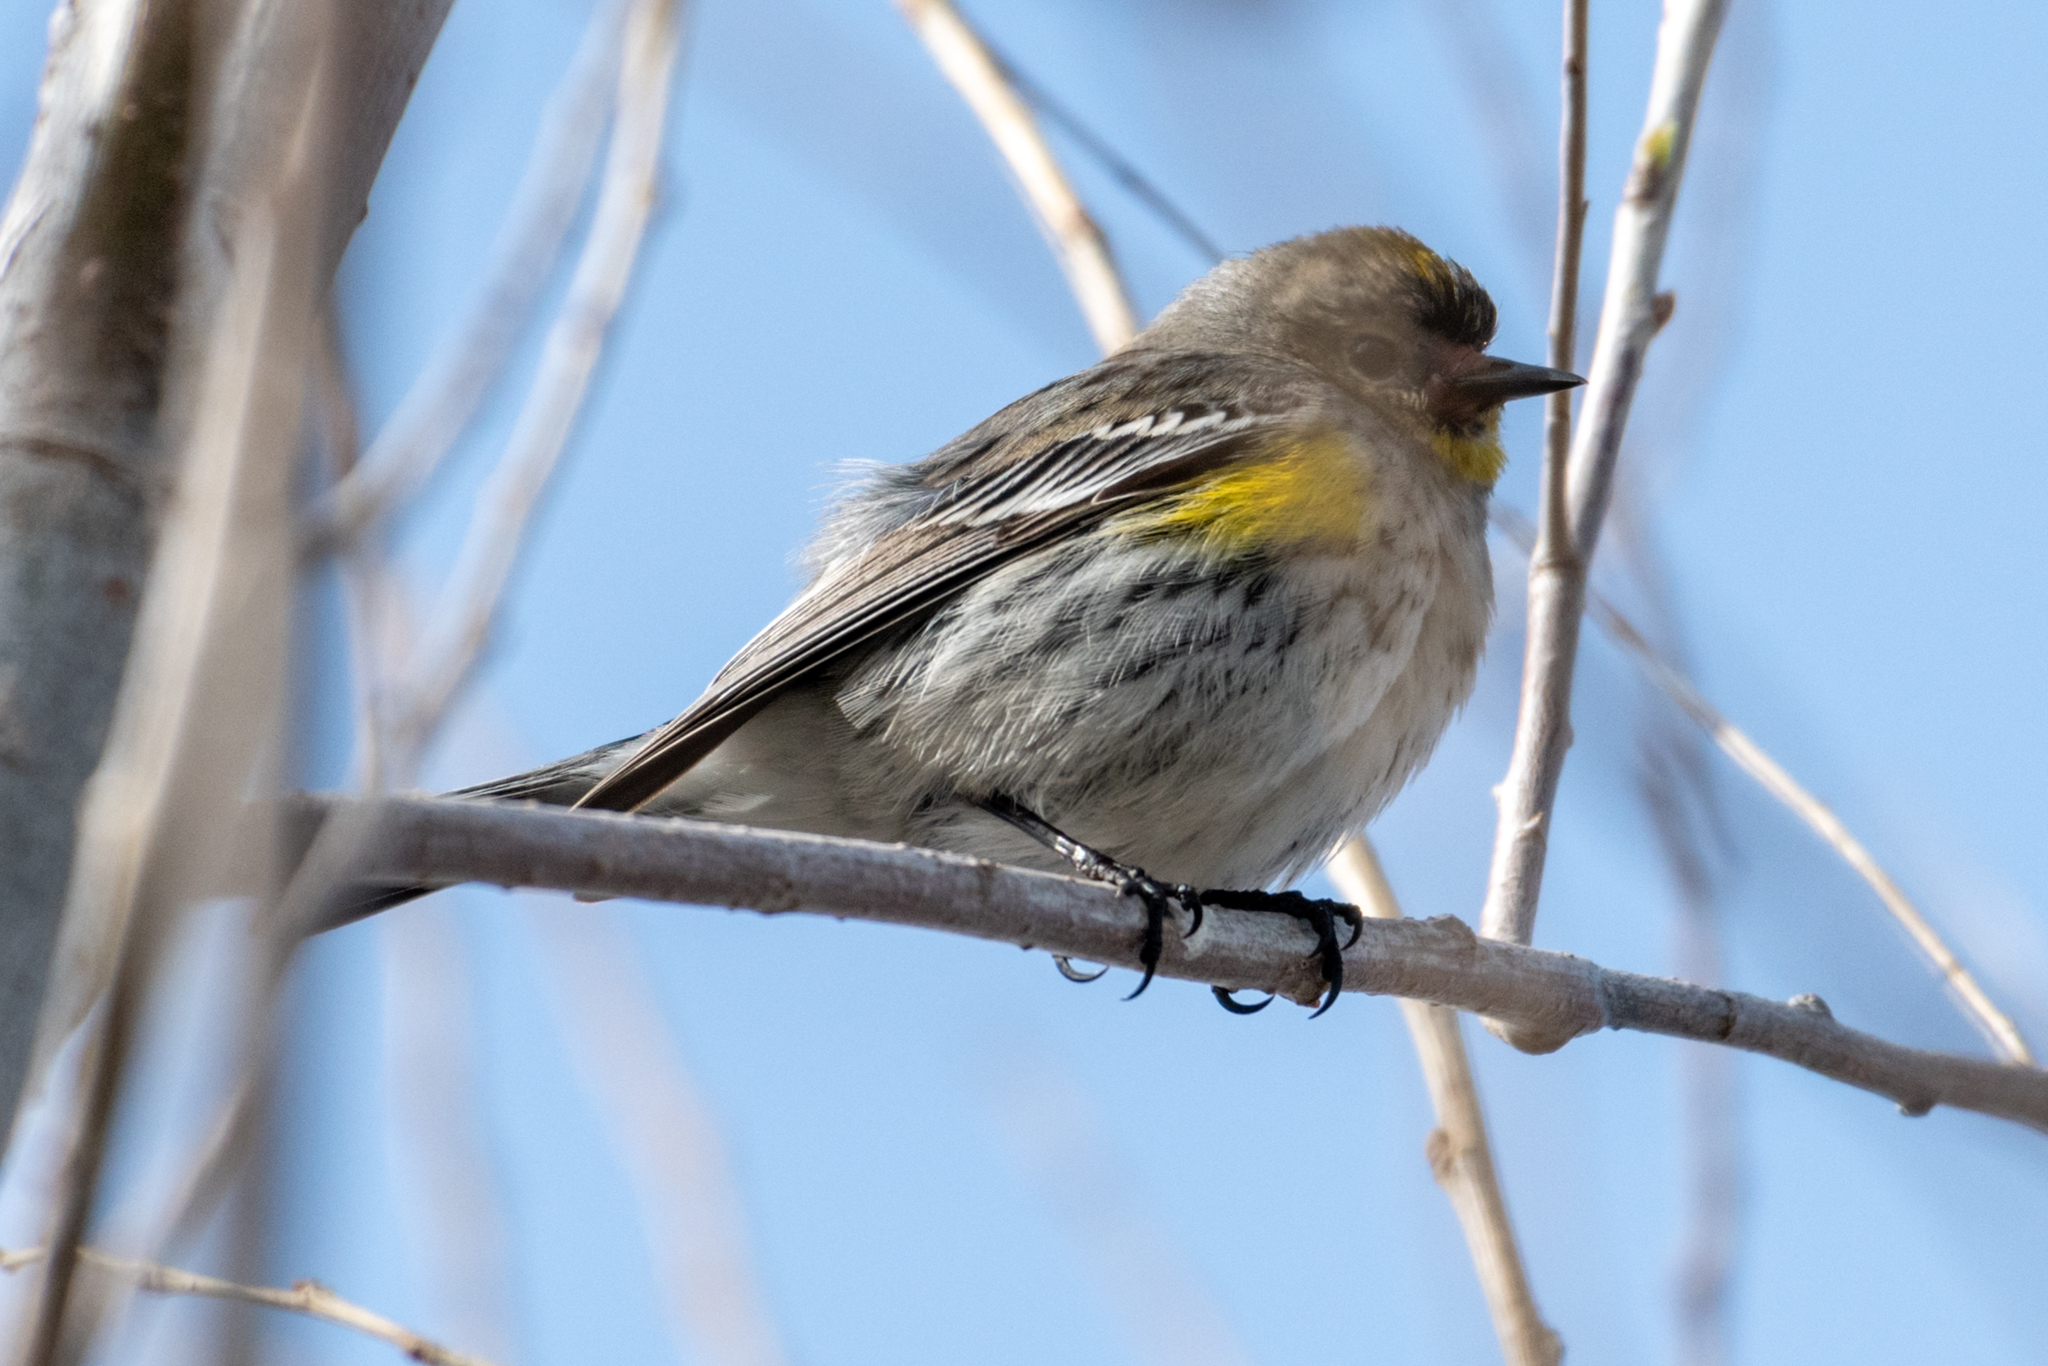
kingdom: Animalia
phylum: Chordata
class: Aves
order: Passeriformes
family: Parulidae
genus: Setophaga
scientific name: Setophaga coronata
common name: Myrtle warbler
